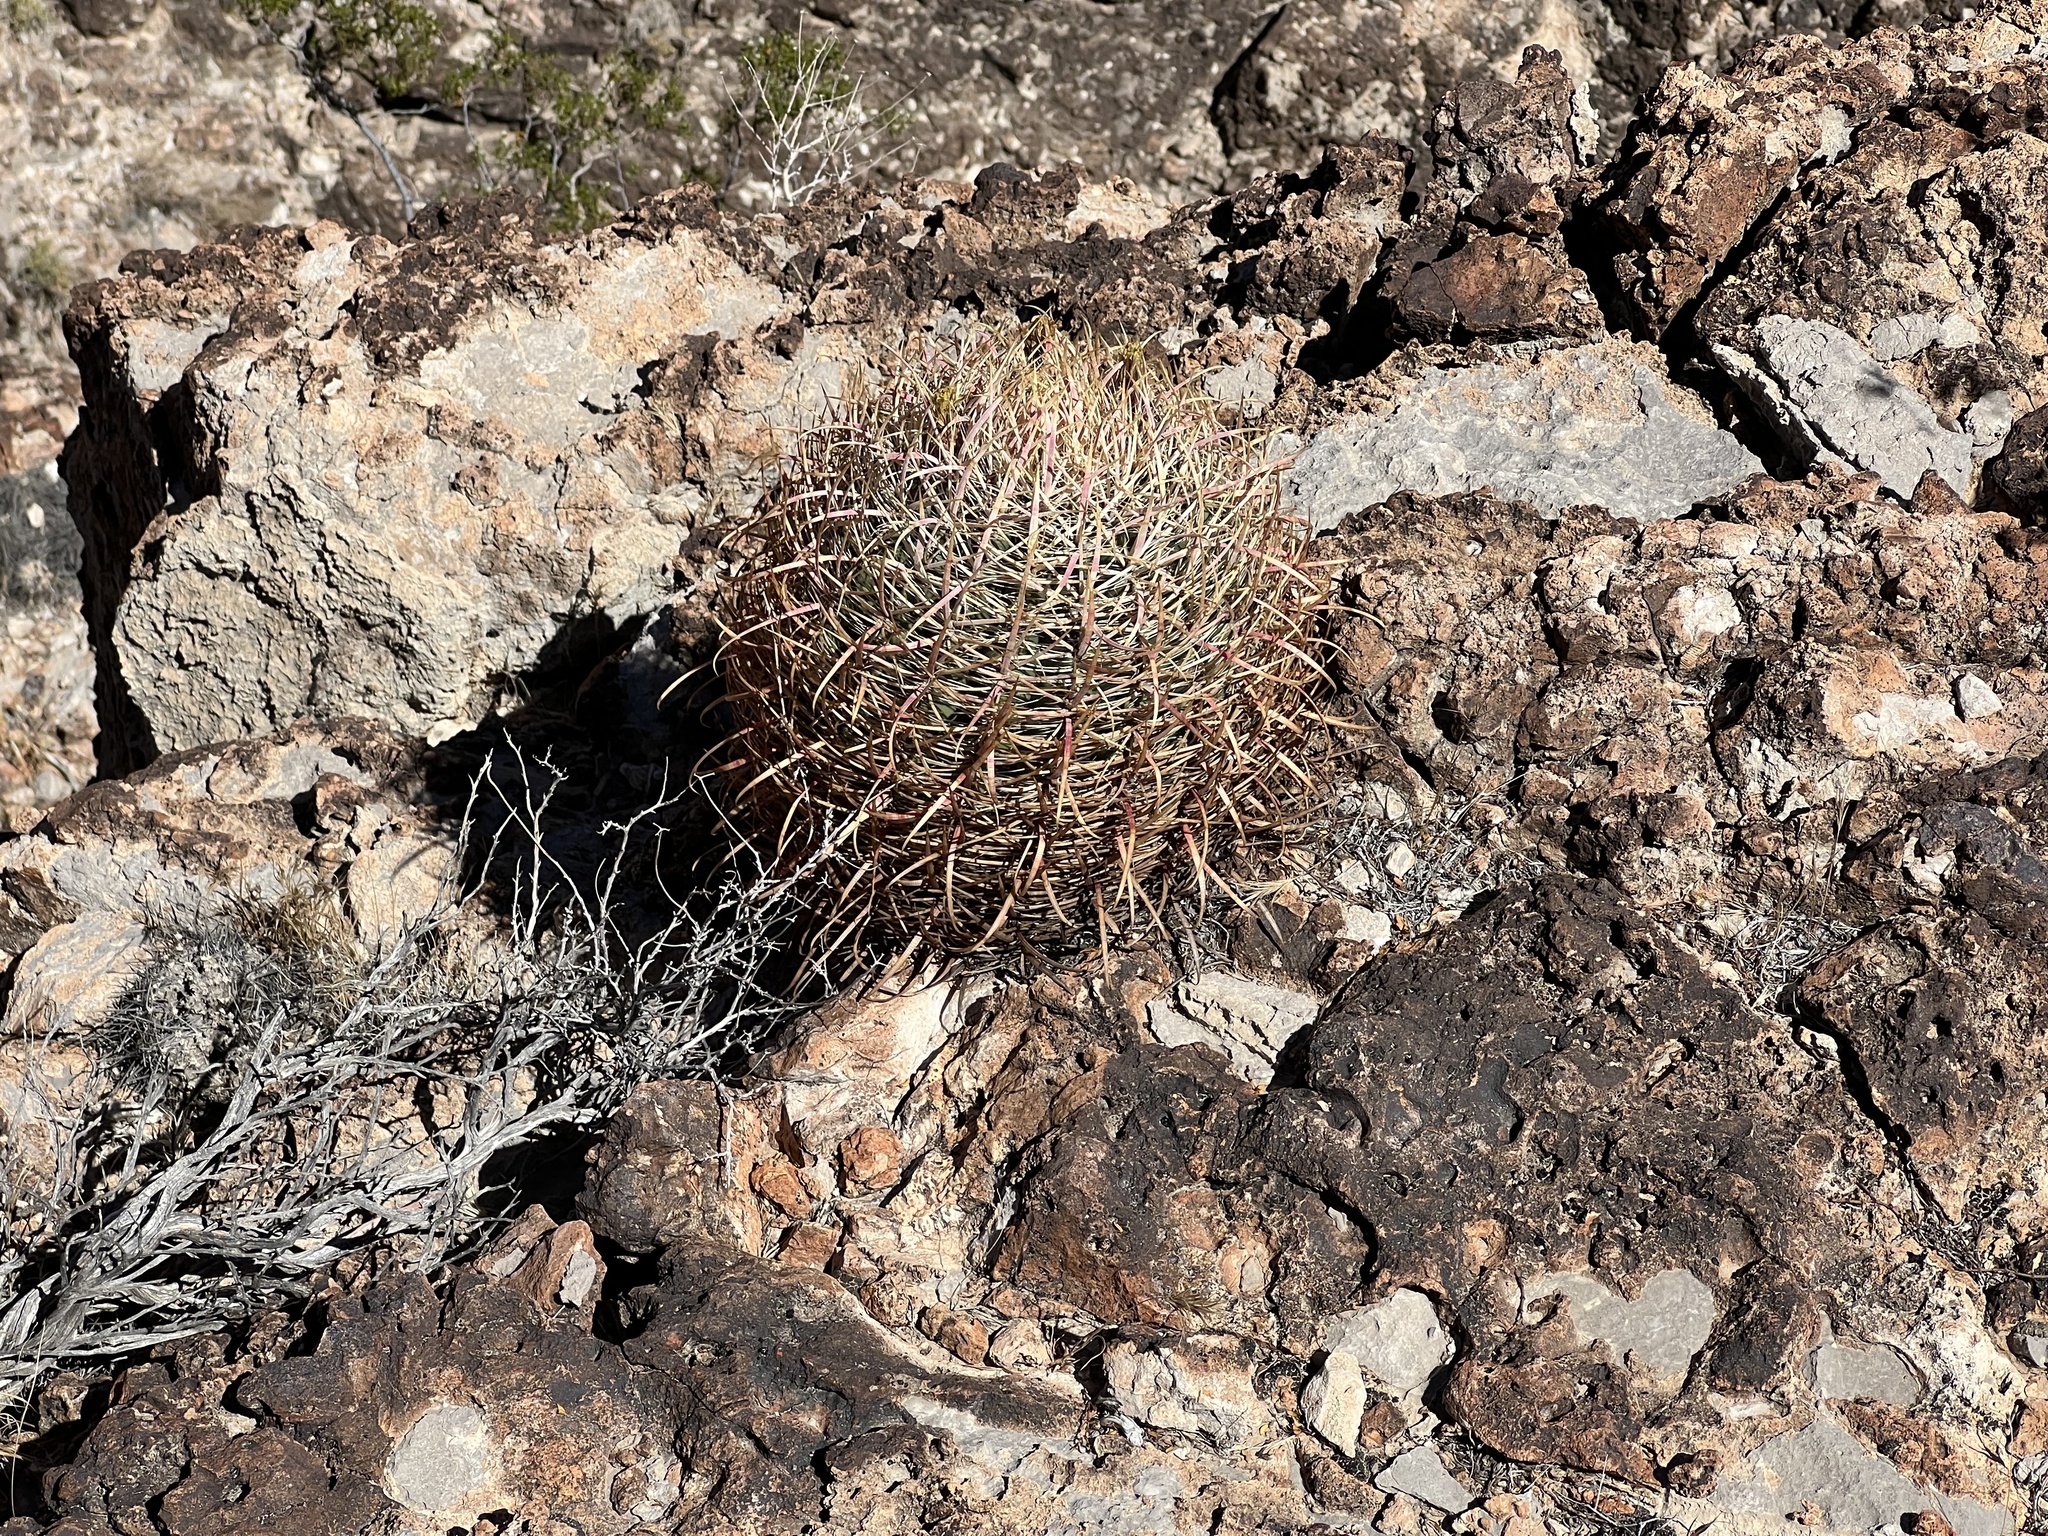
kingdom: Plantae
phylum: Tracheophyta
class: Magnoliopsida
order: Caryophyllales
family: Cactaceae
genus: Ferocactus
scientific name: Ferocactus cylindraceus
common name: California barrel cactus
